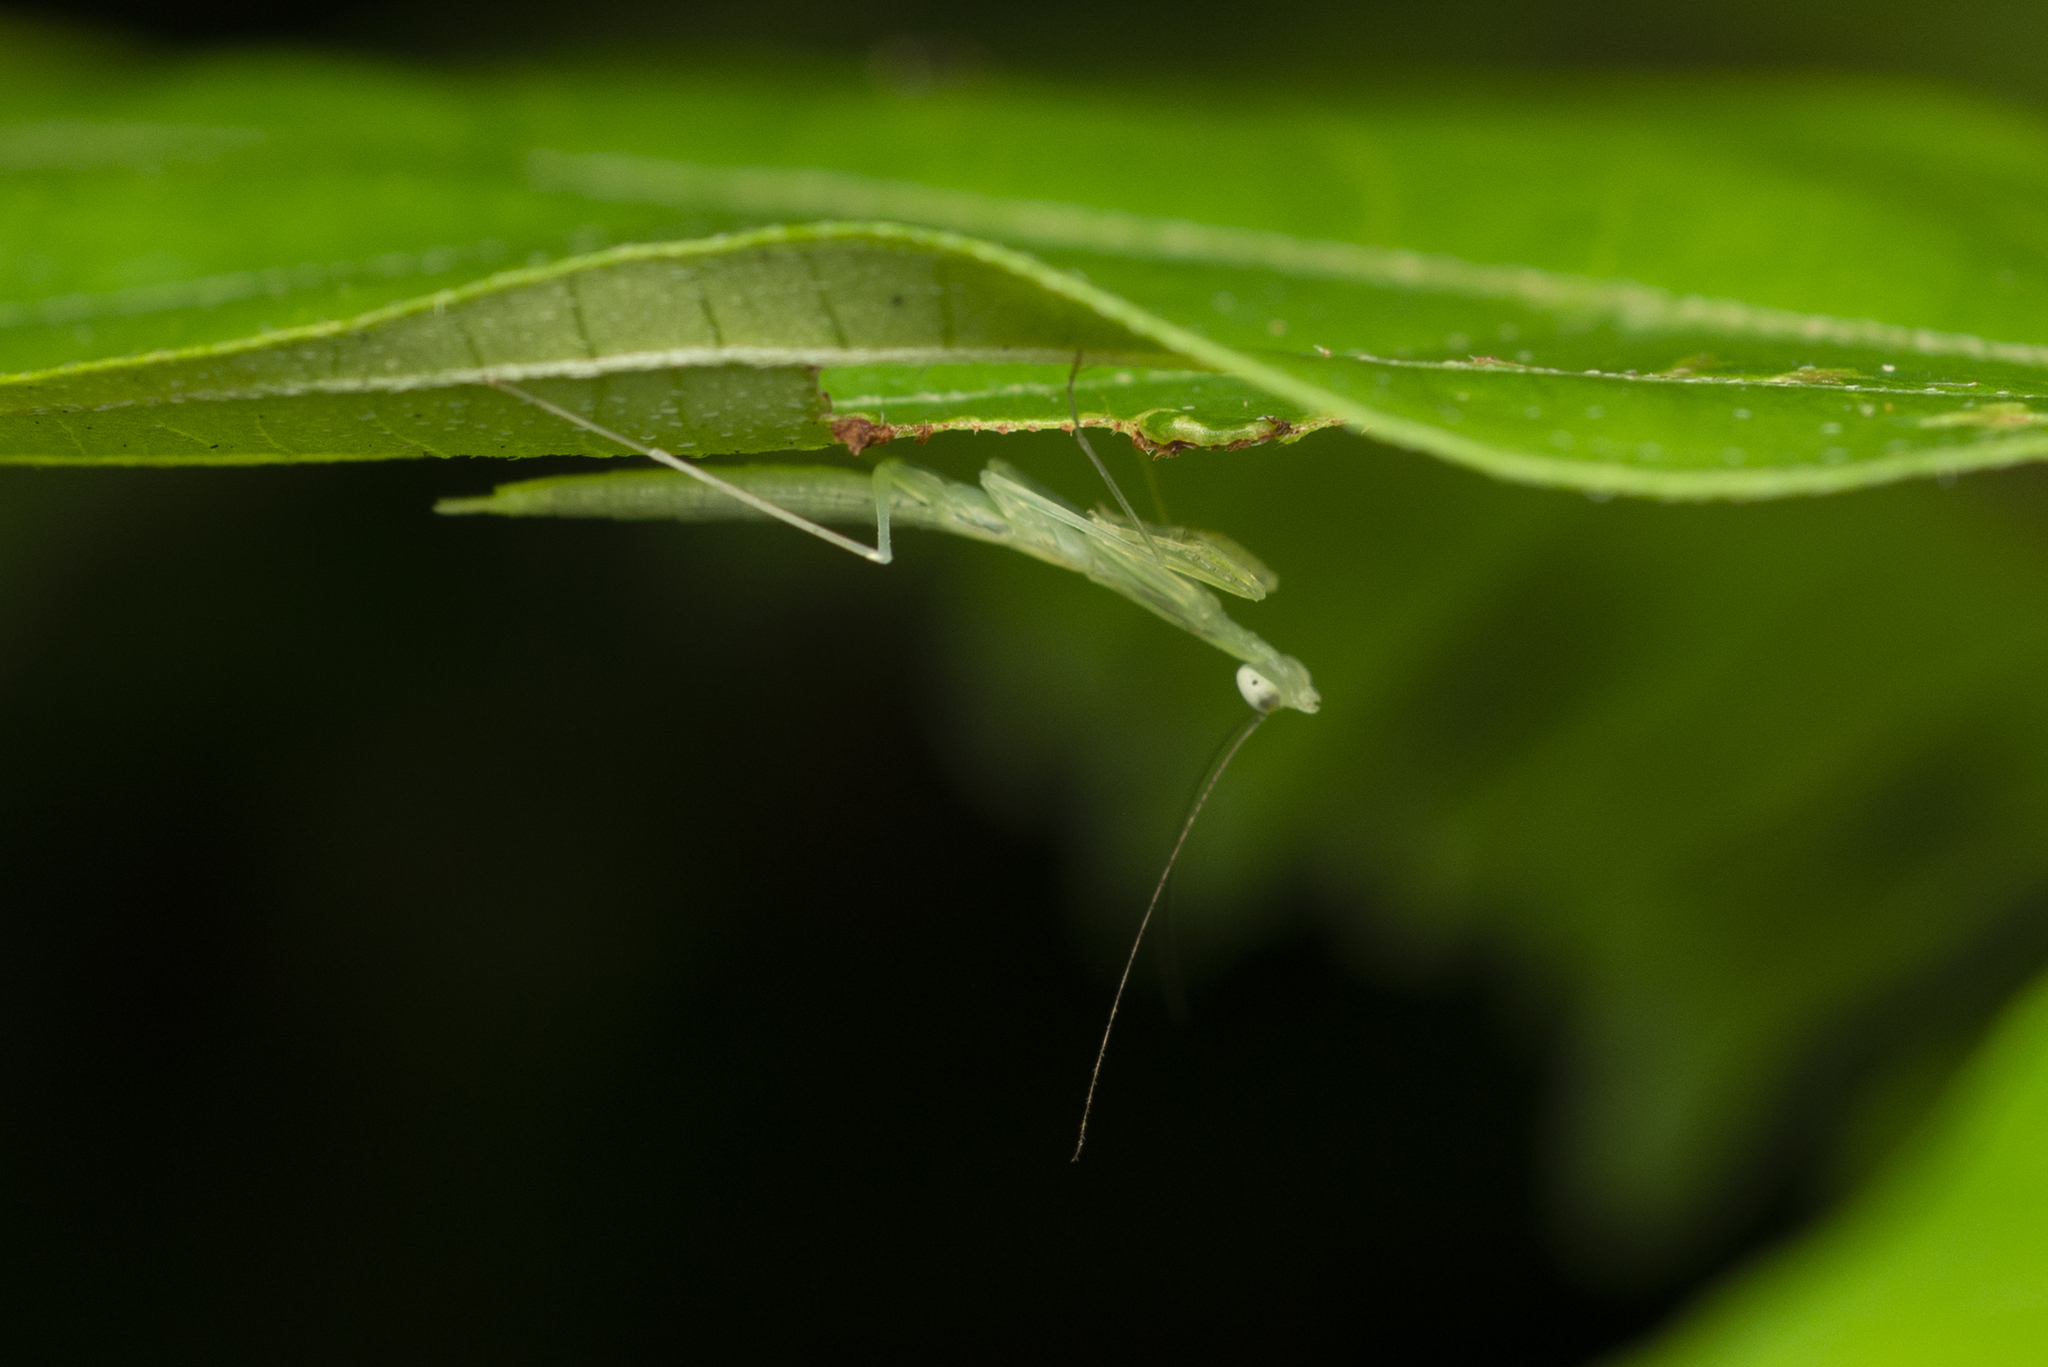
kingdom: Animalia
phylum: Arthropoda
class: Insecta
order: Mantodea
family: Nanomantidae
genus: Sinomantis
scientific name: Sinomantis denticulata
